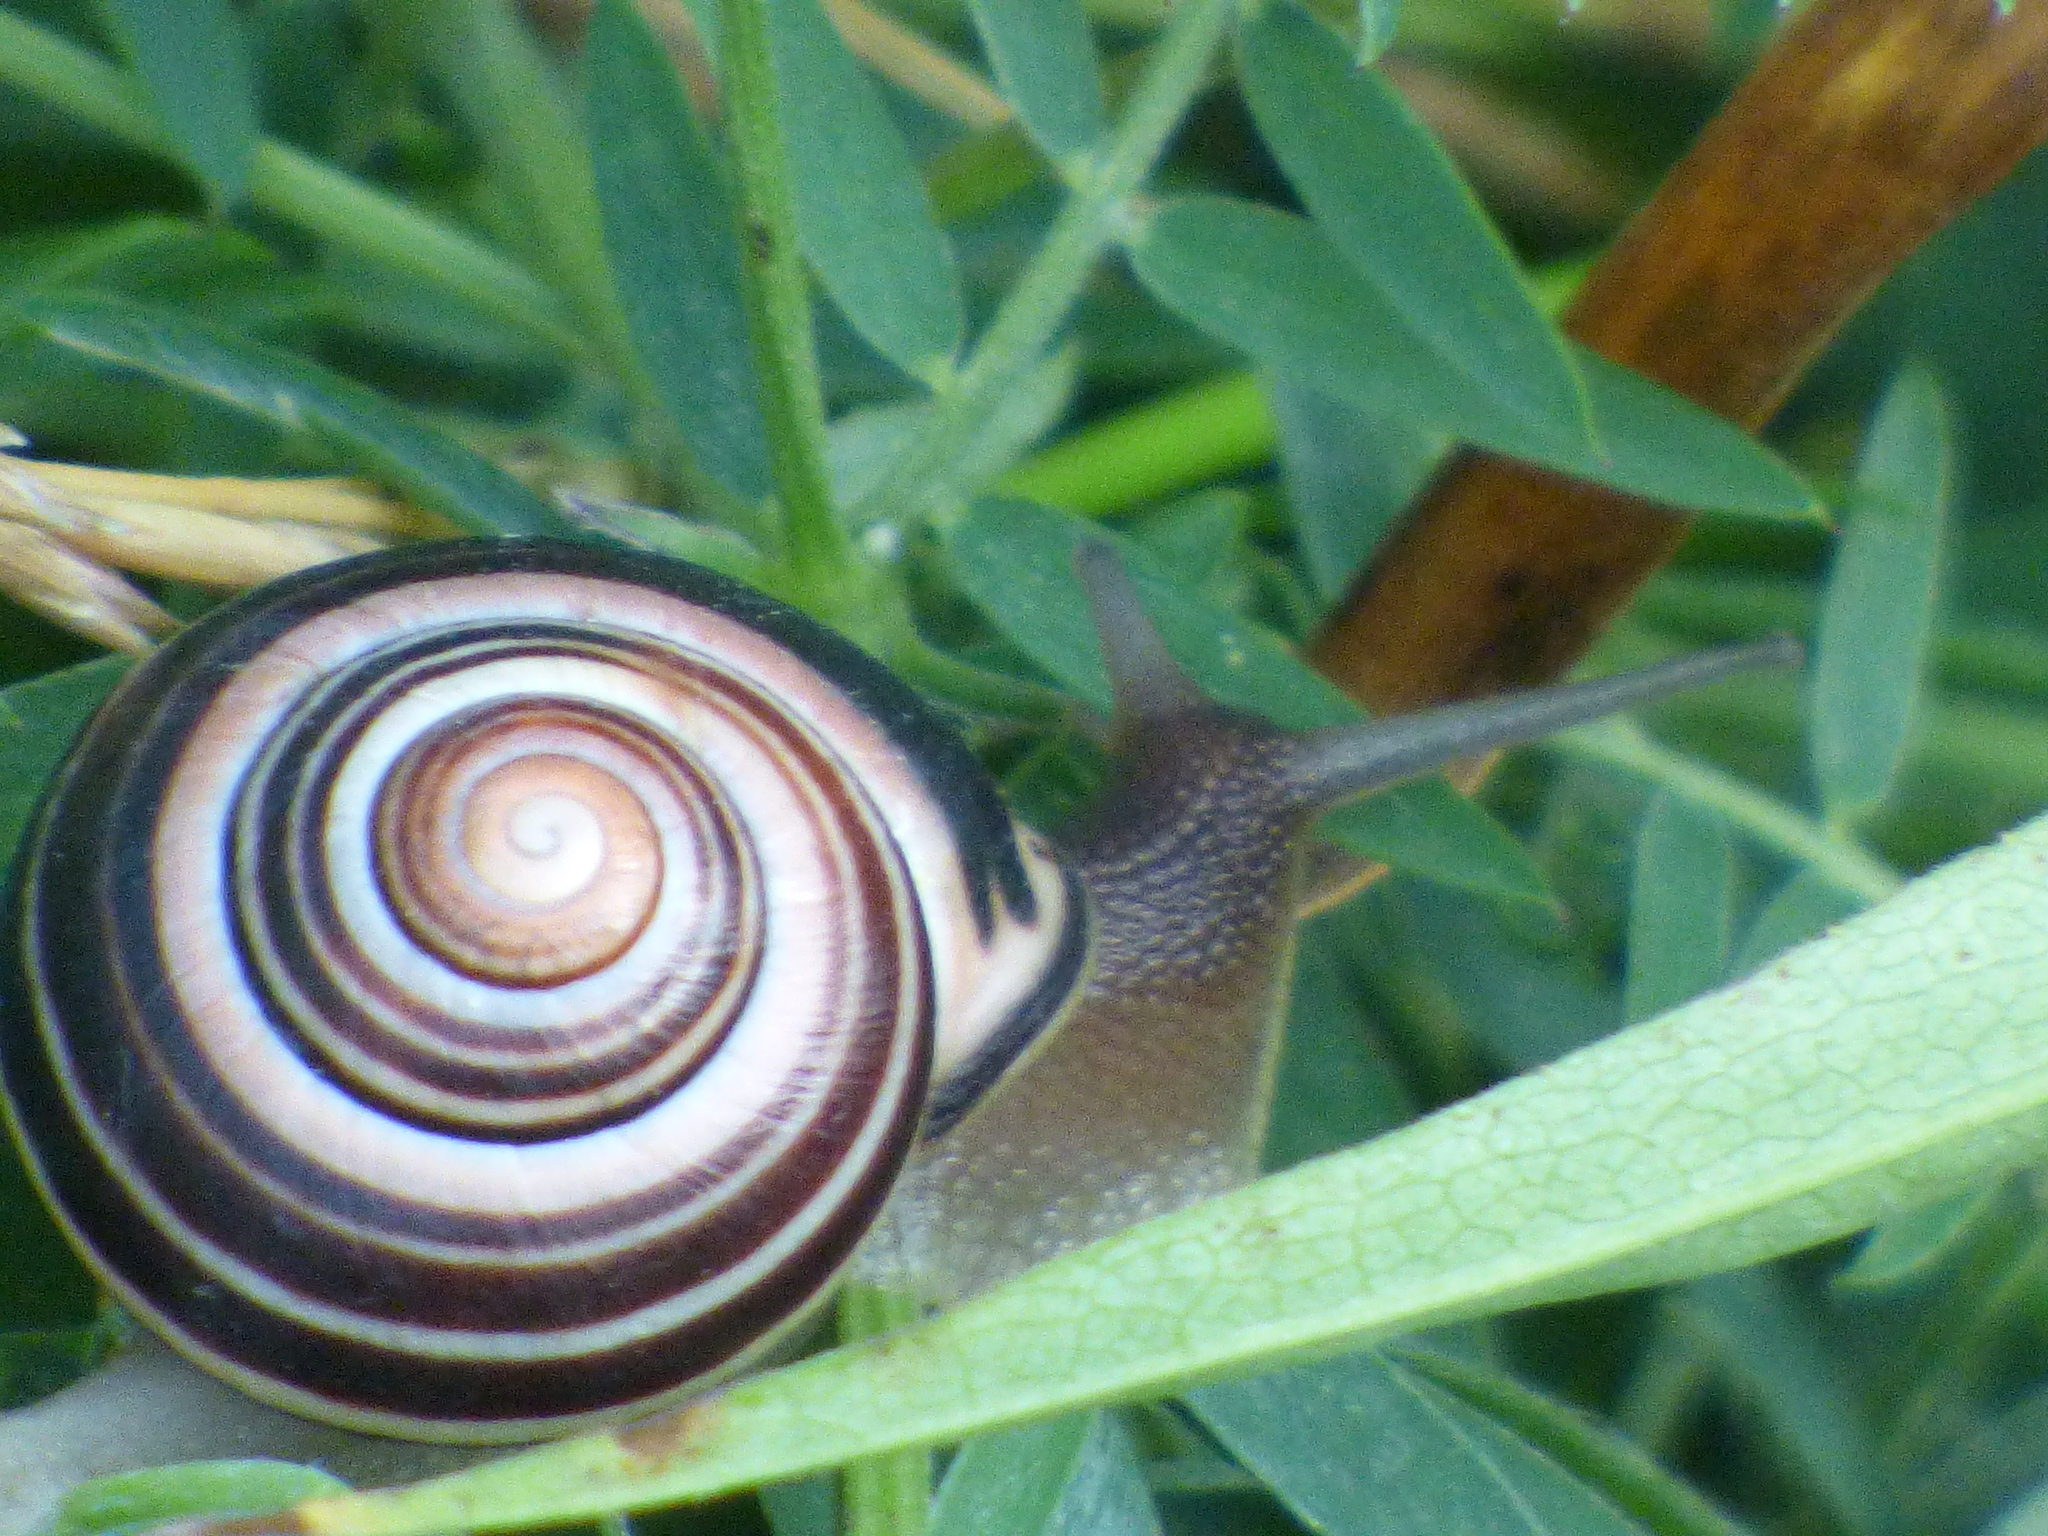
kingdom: Animalia
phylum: Mollusca
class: Gastropoda
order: Stylommatophora
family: Helicidae
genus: Cepaea
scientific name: Cepaea nemoralis
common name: Grovesnail
